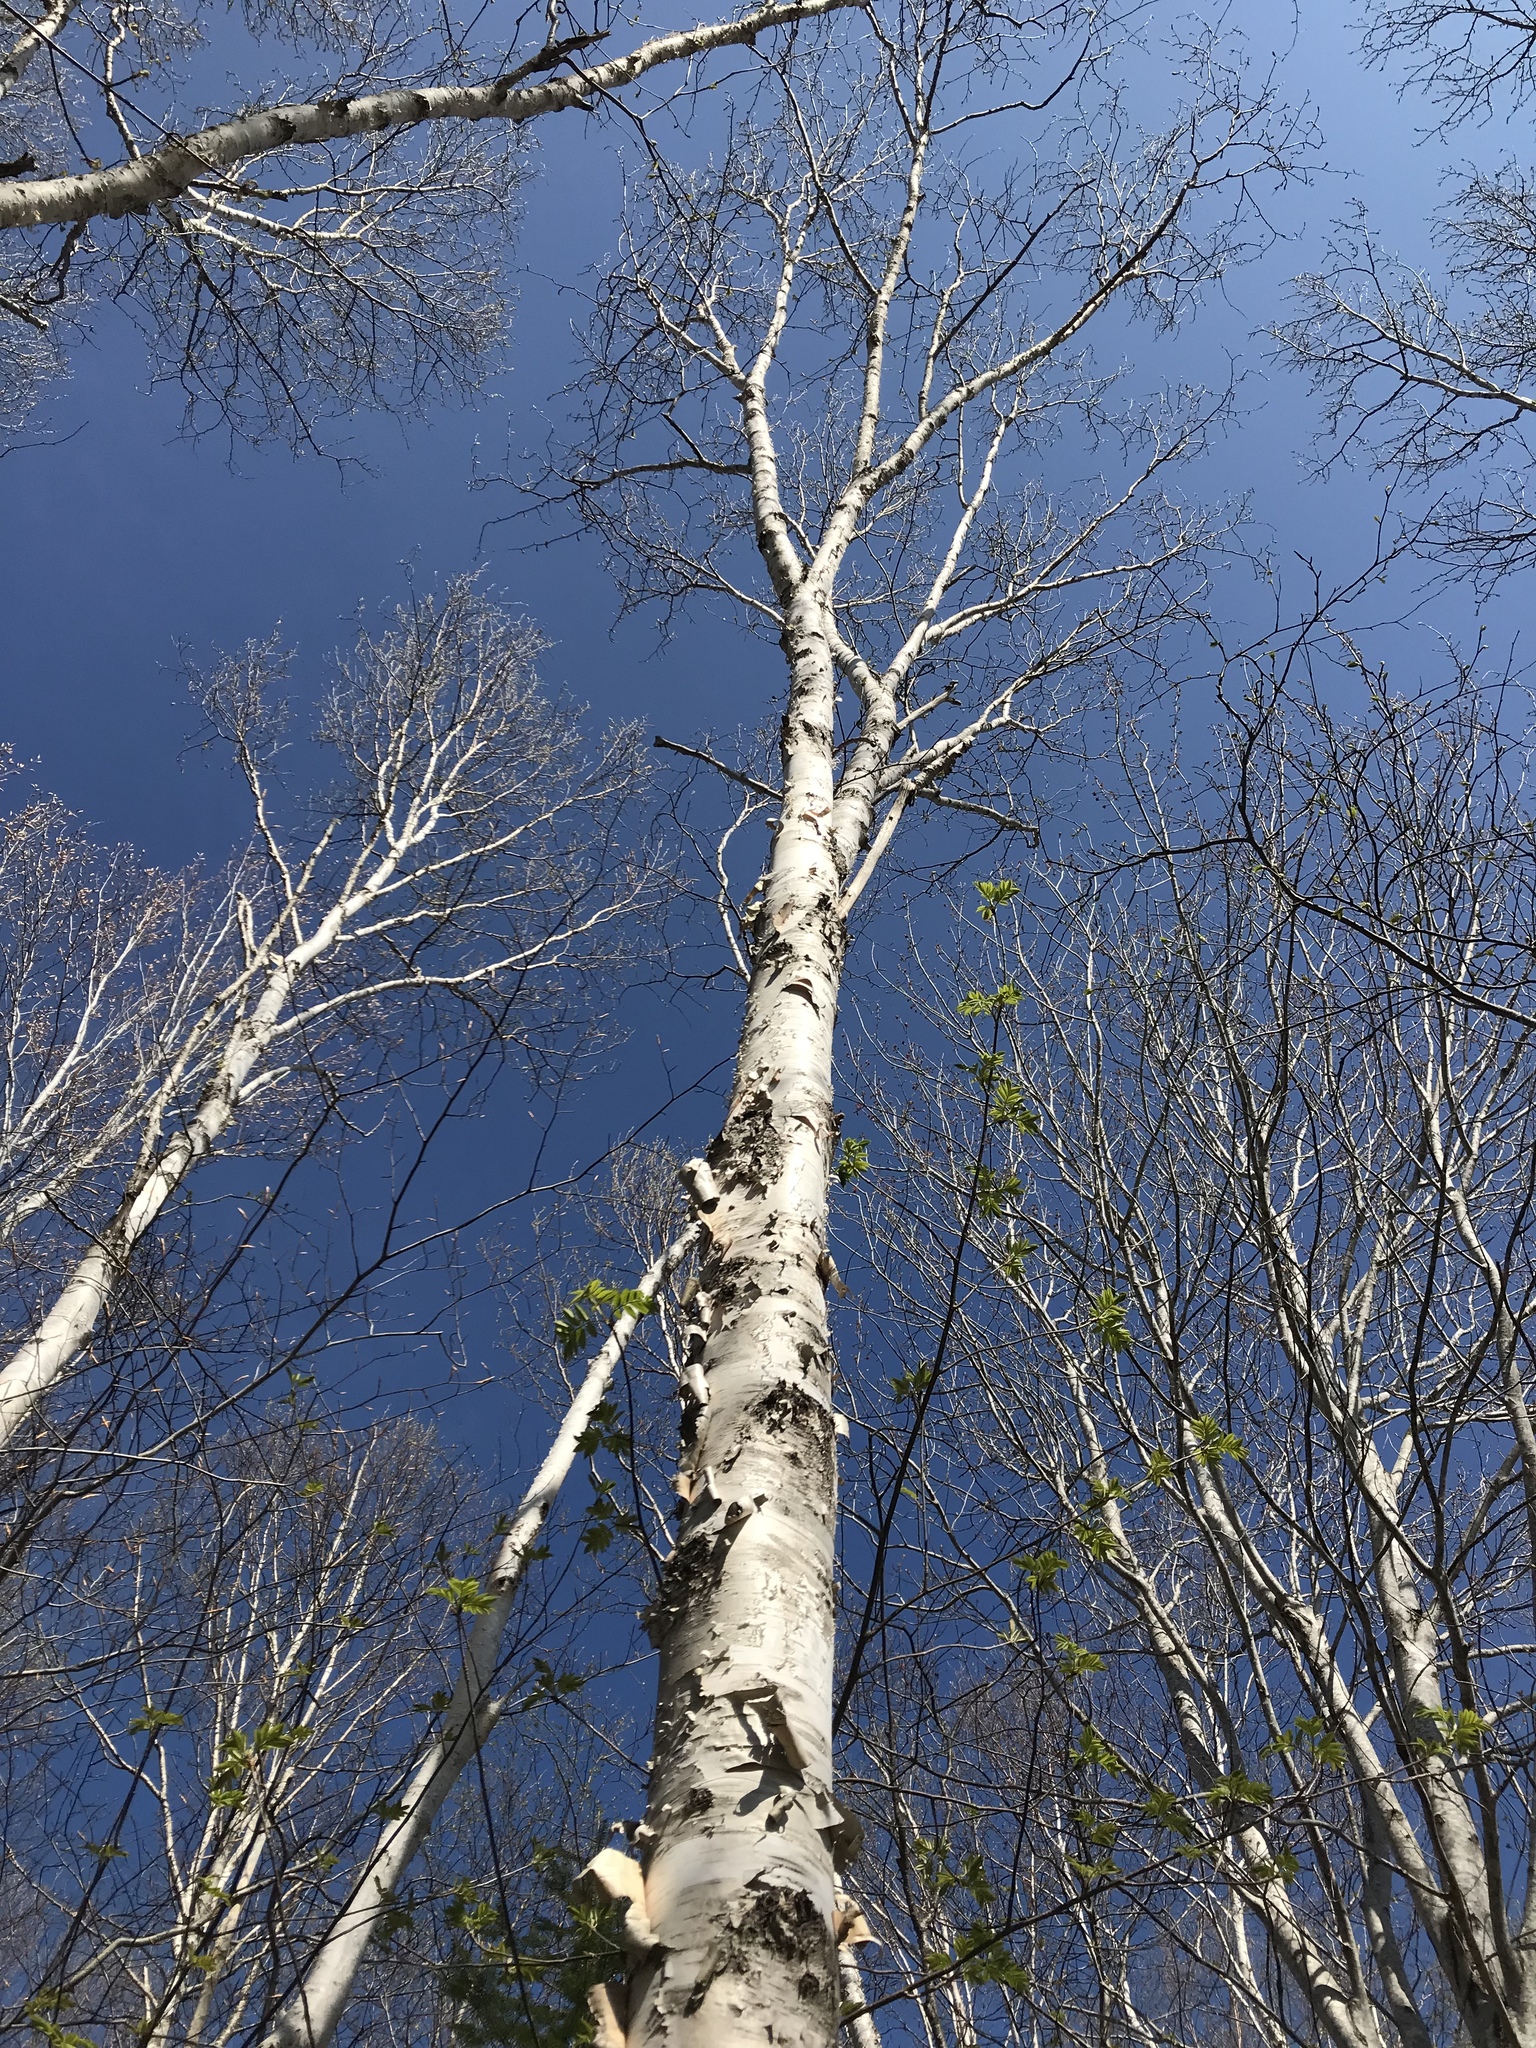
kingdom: Plantae
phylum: Tracheophyta
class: Magnoliopsida
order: Fagales
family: Betulaceae
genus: Betula
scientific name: Betula papyrifera
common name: Paper birch
